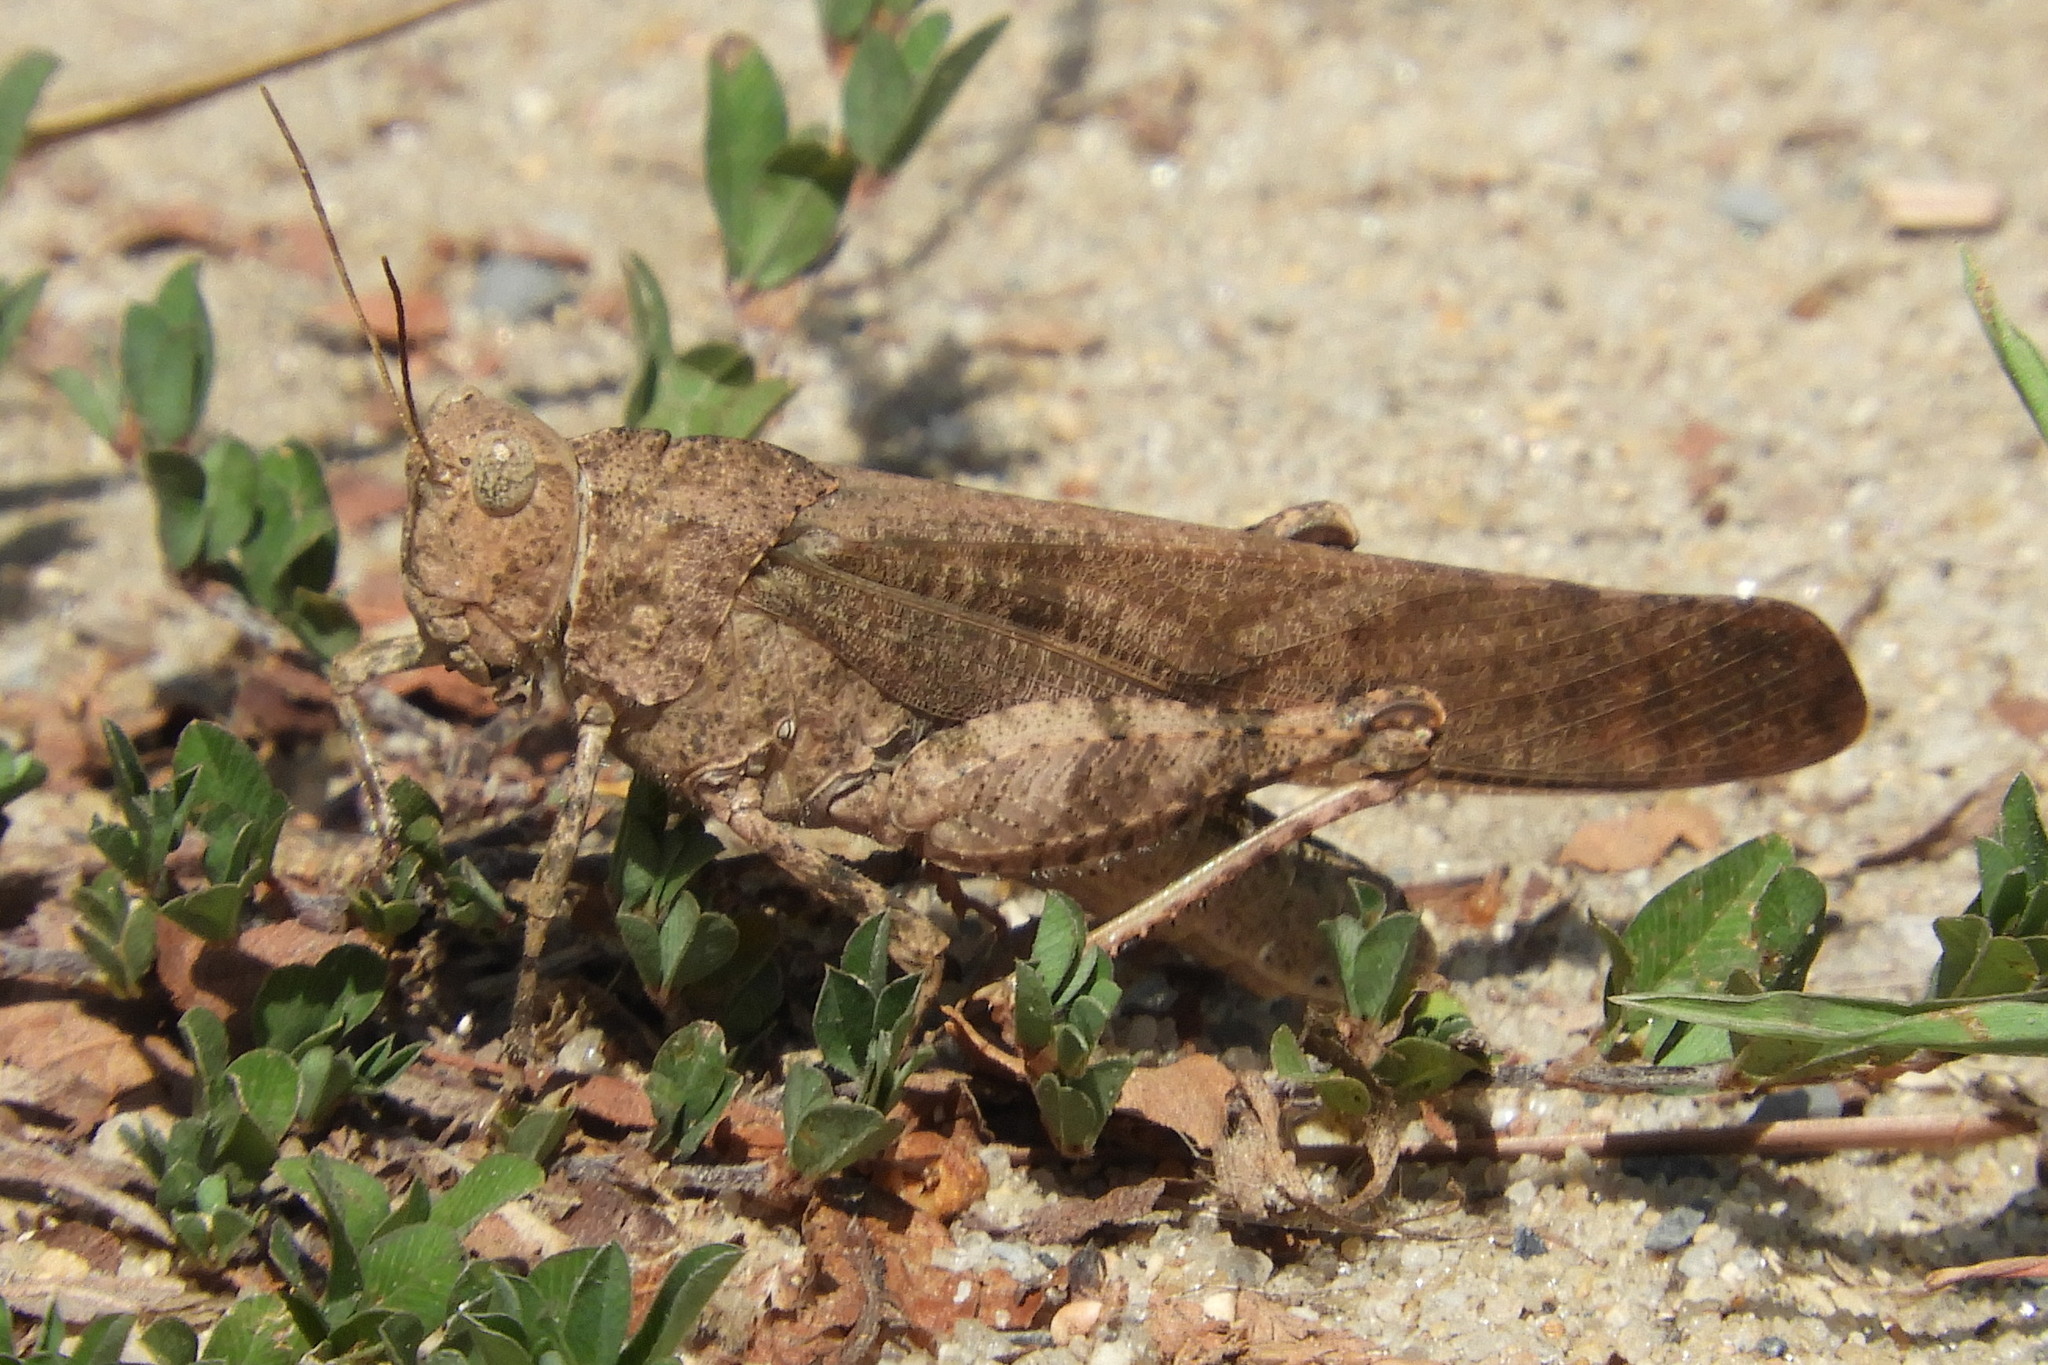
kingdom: Animalia
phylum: Arthropoda
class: Insecta
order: Orthoptera
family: Acrididae
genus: Dissosteira
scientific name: Dissosteira carolina
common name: Carolina grasshopper
